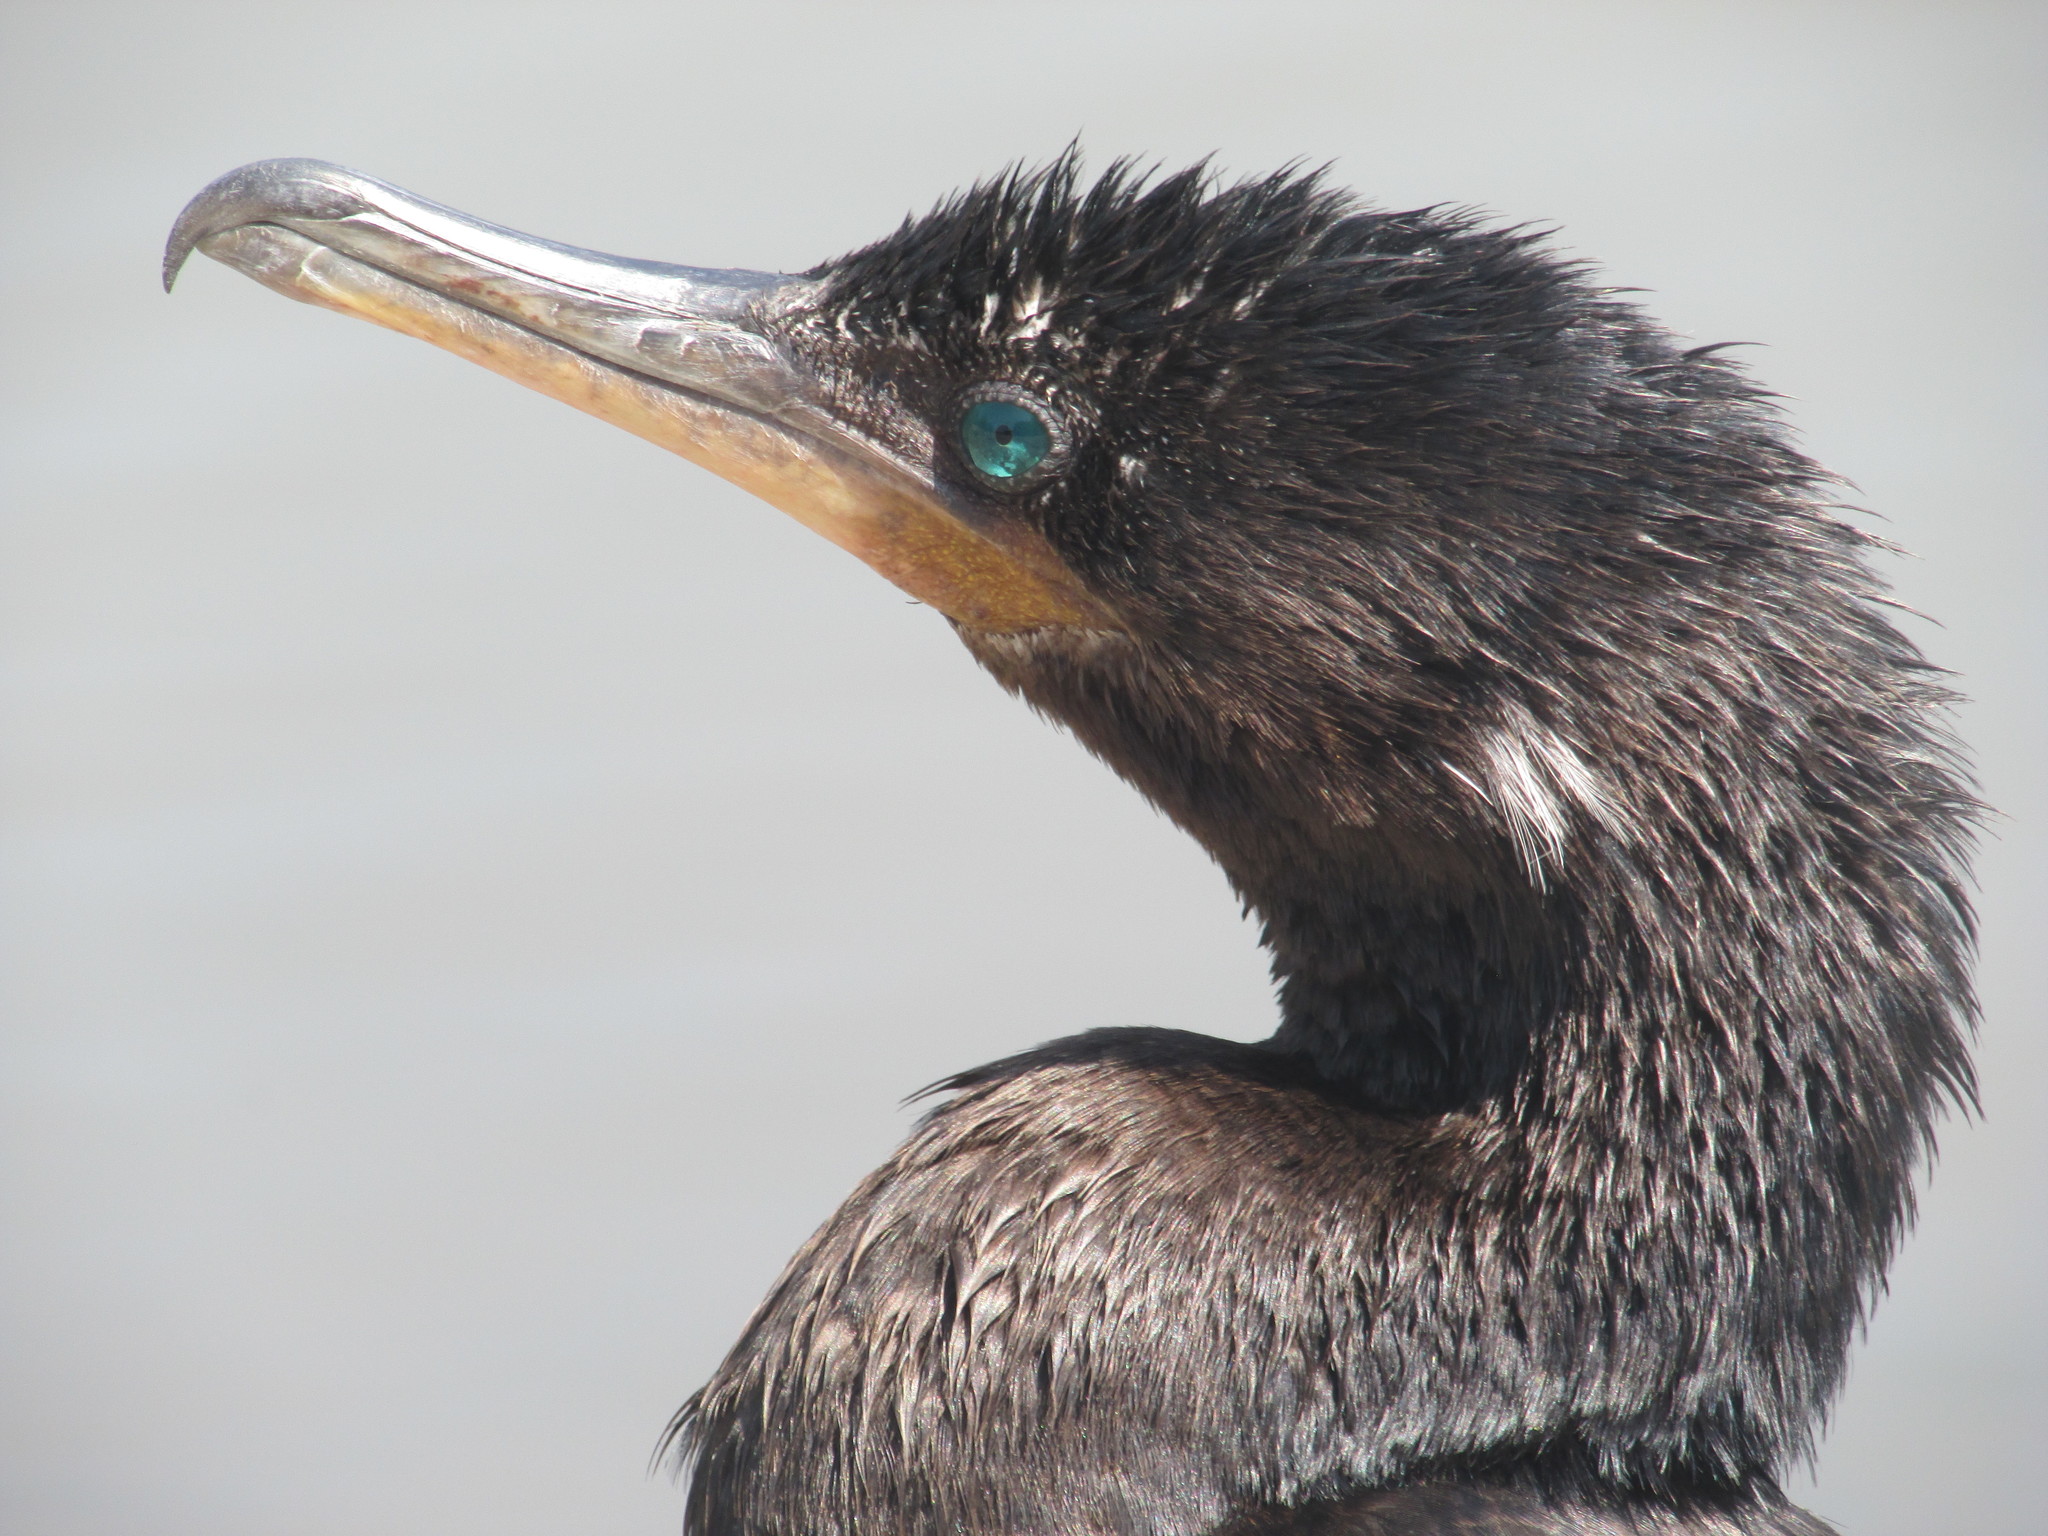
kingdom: Animalia
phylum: Chordata
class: Aves
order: Suliformes
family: Phalacrocoracidae
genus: Phalacrocorax
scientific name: Phalacrocorax brasilianus
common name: Neotropic cormorant
